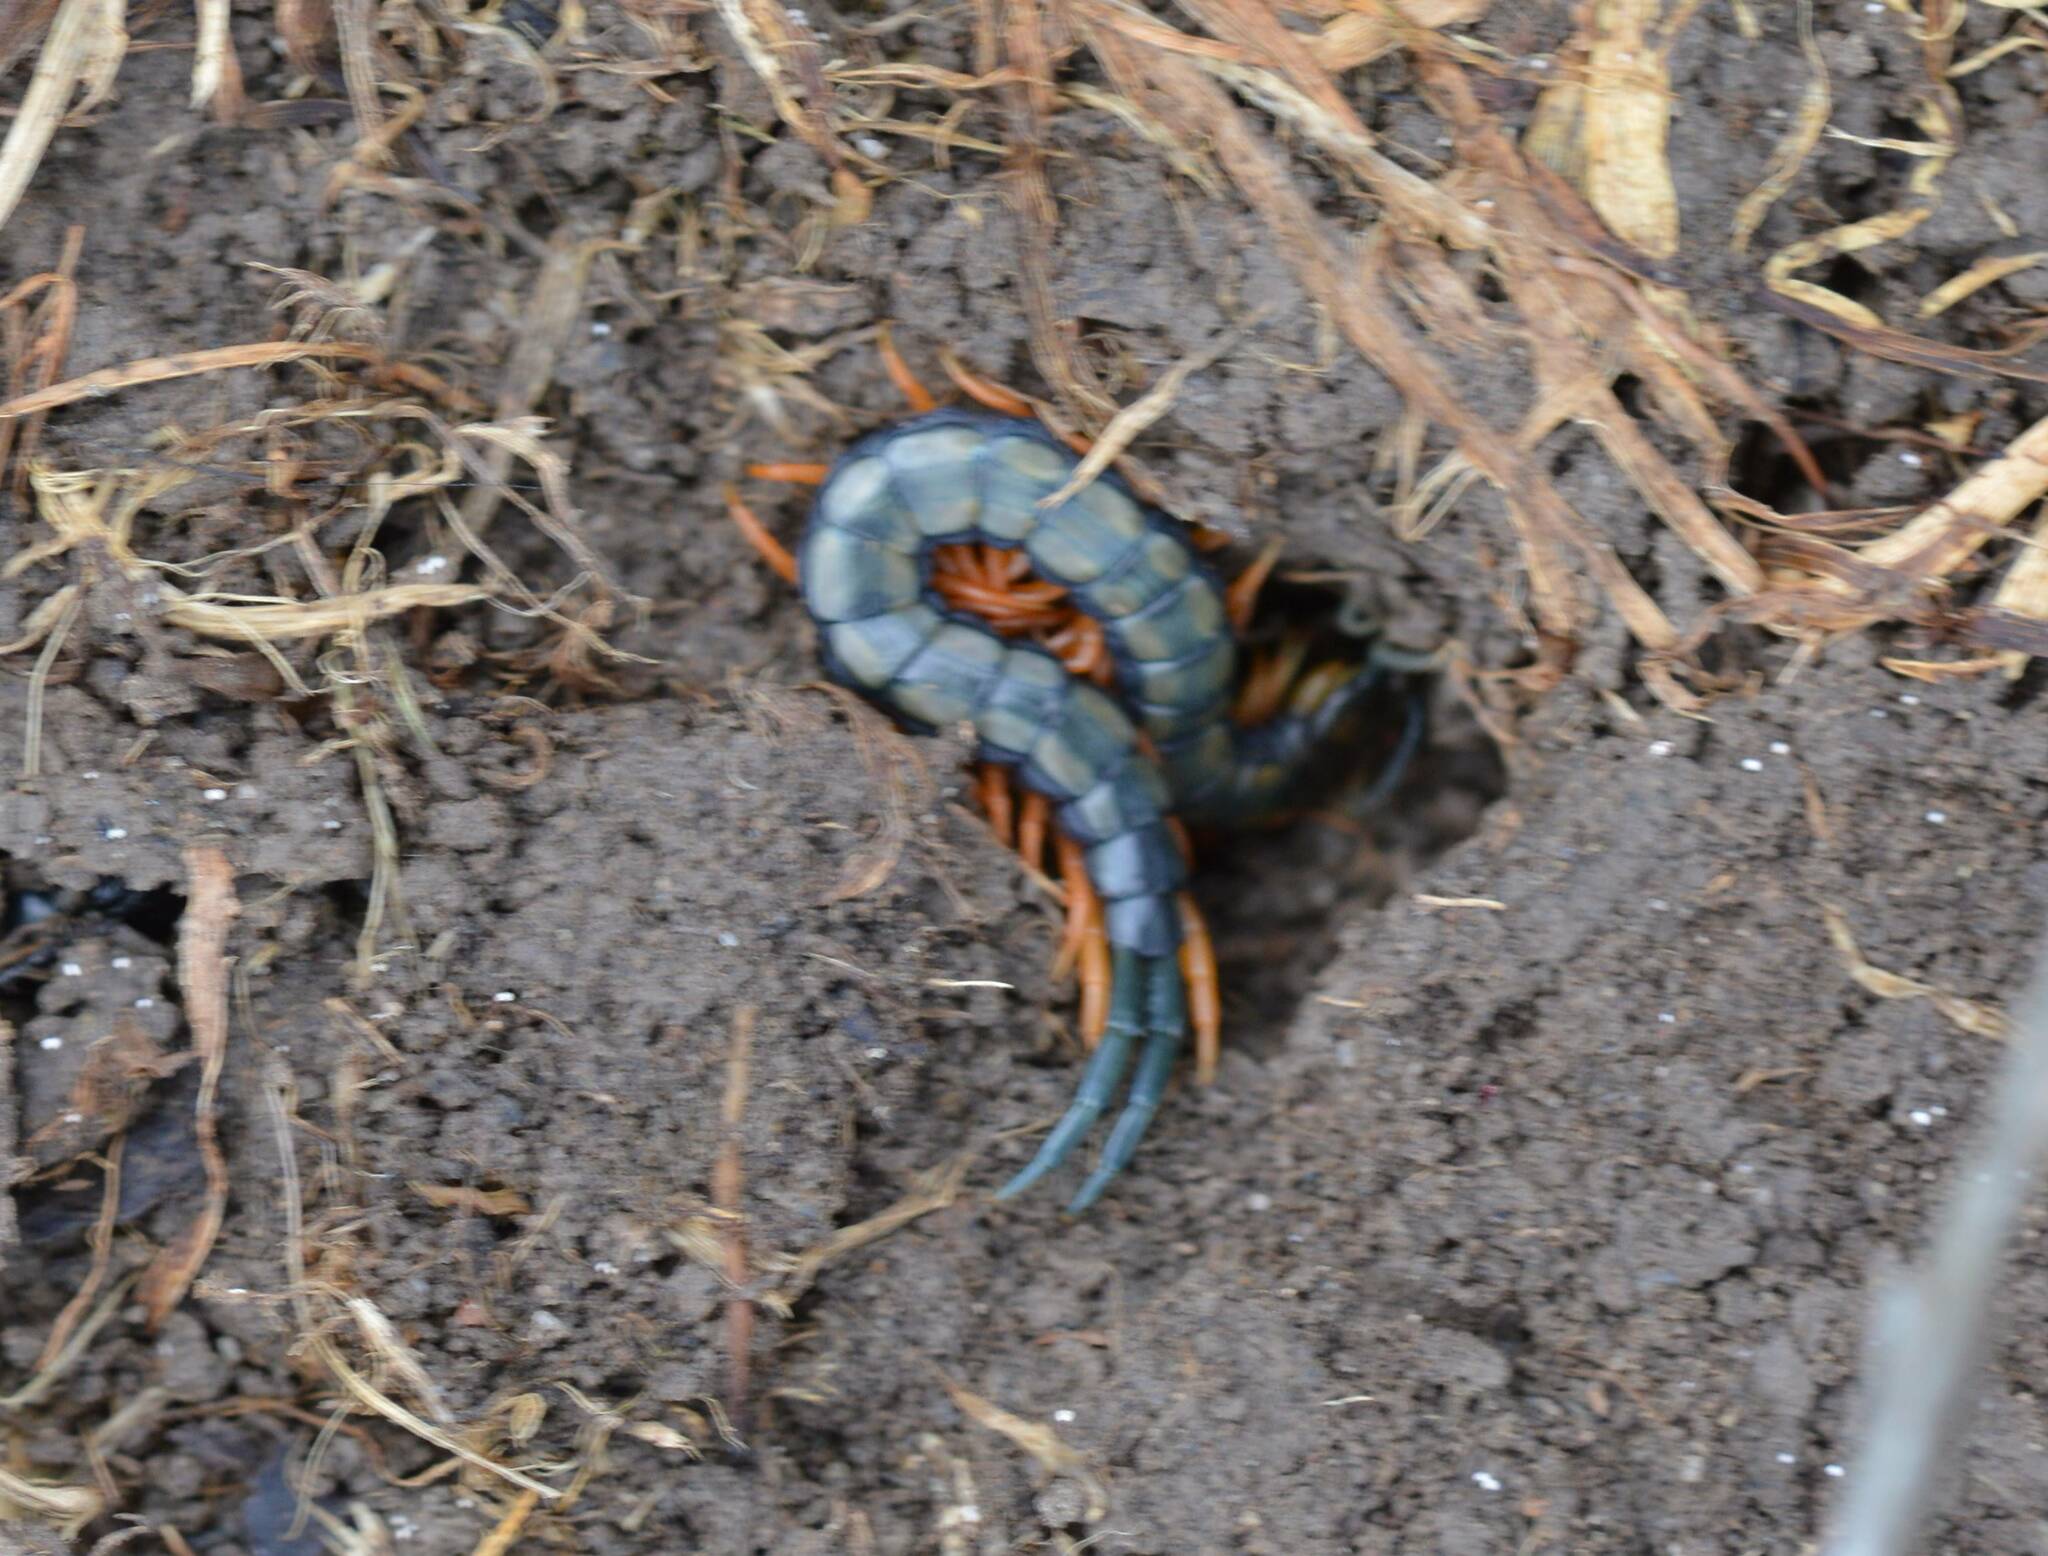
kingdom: Animalia
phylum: Arthropoda
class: Chilopoda
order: Scolopendromorpha
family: Scolopendridae
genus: Scolopendra
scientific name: Scolopendra cingulata
